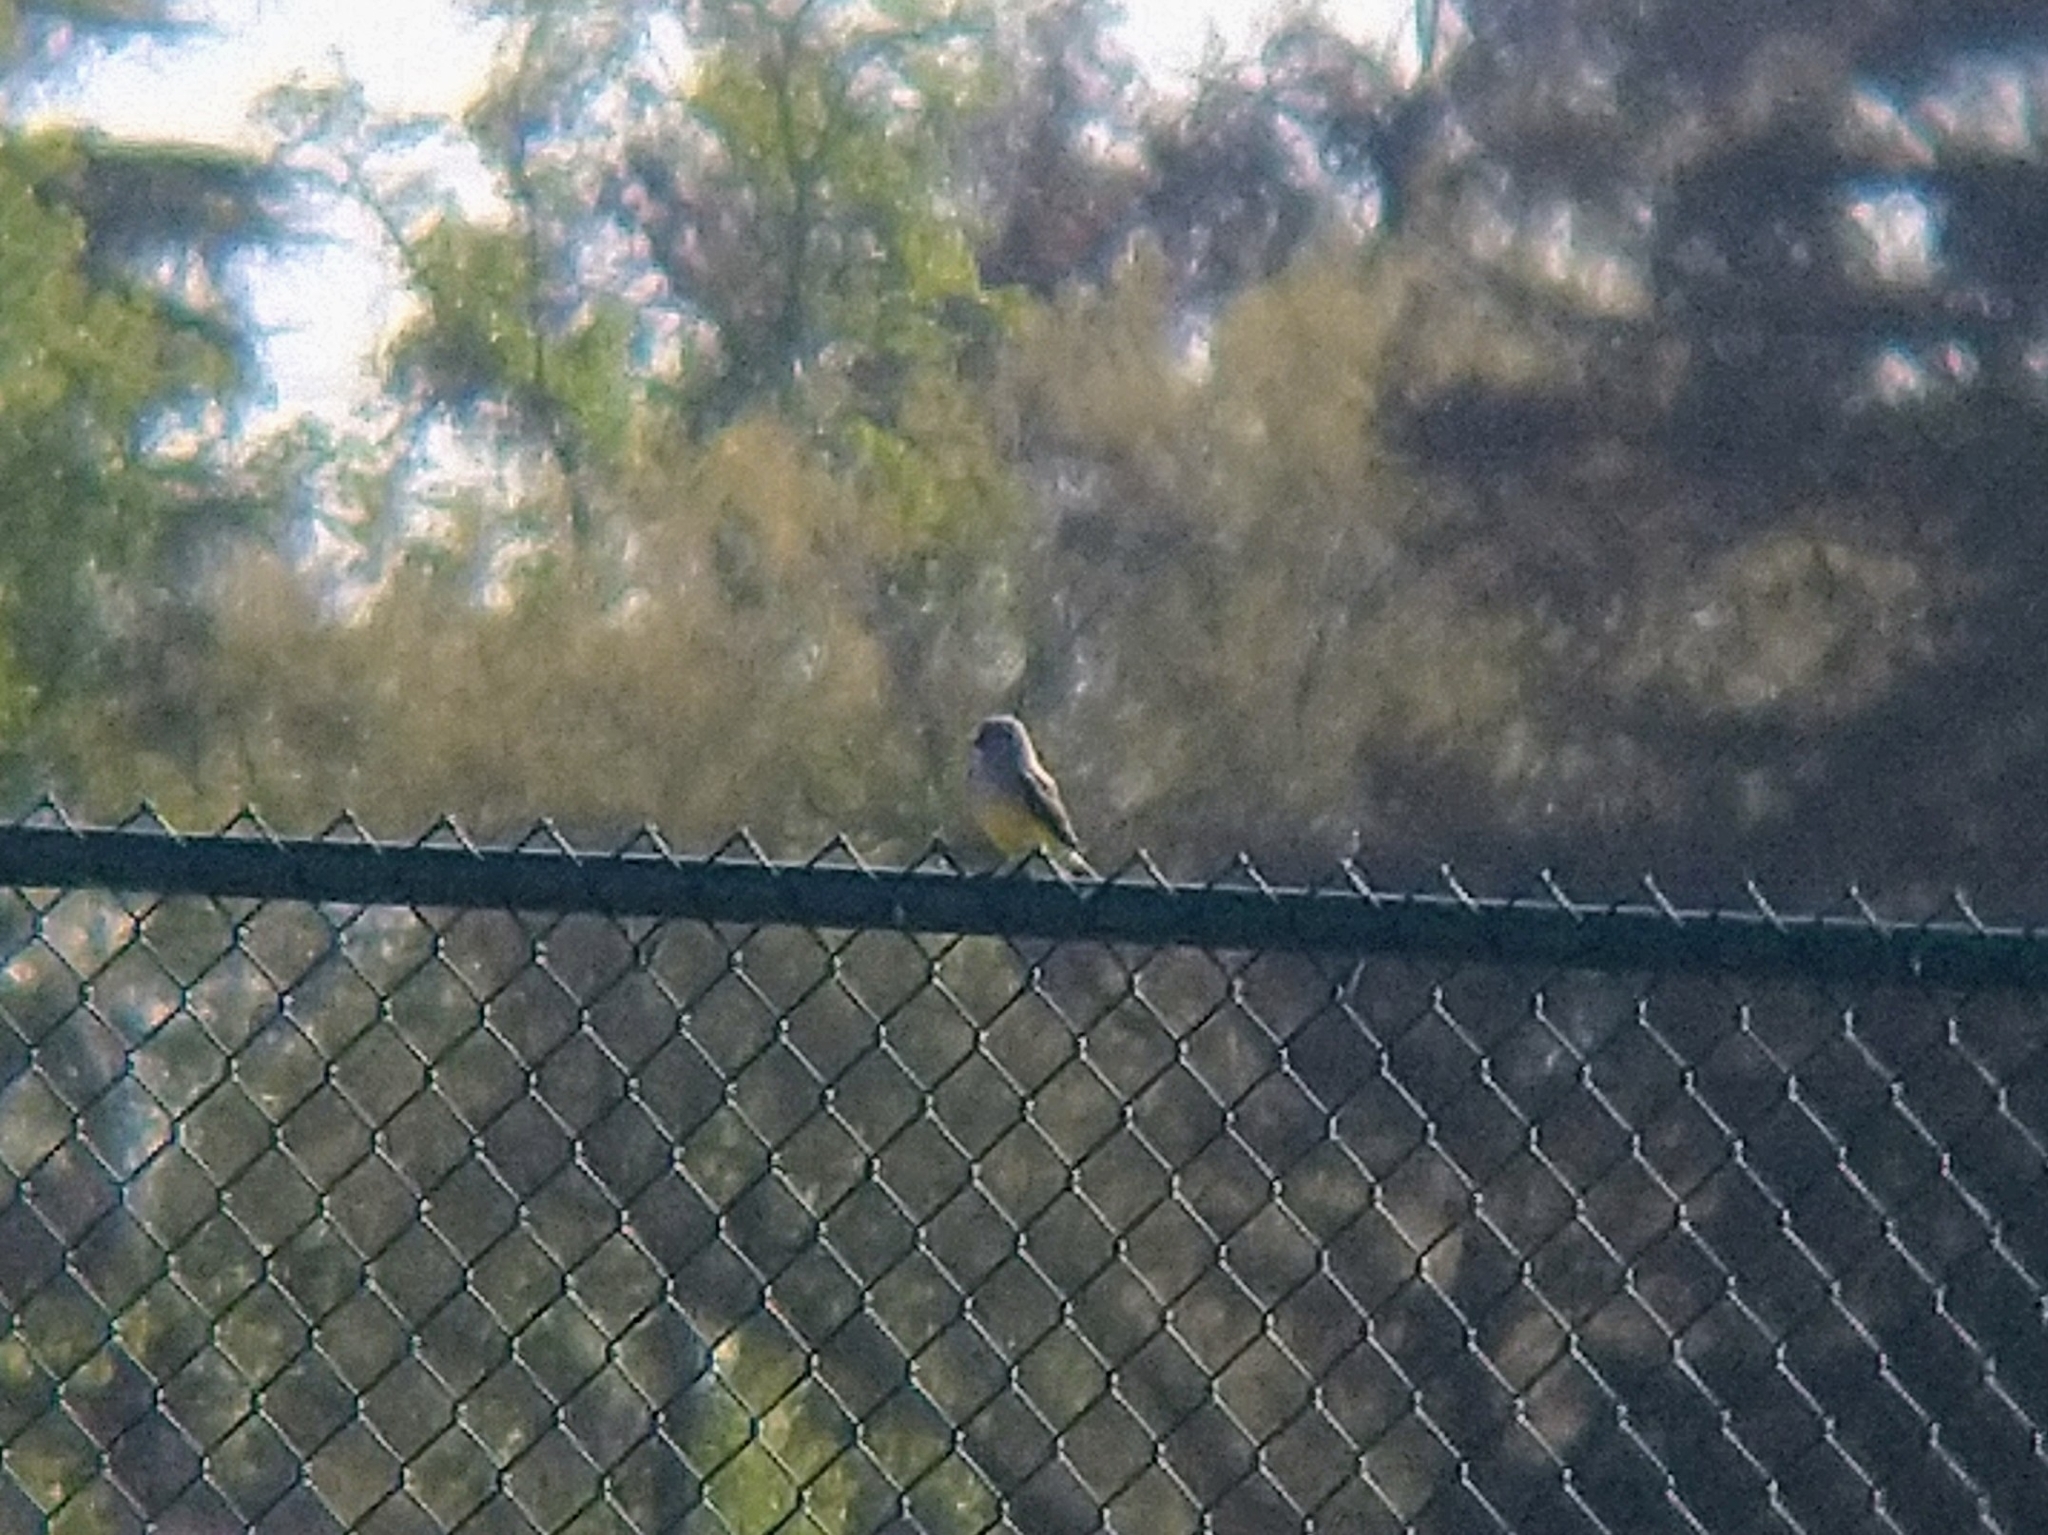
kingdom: Animalia
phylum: Chordata
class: Aves
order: Passeriformes
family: Tyrannidae
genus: Tyrannus
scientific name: Tyrannus verticalis
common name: Western kingbird
